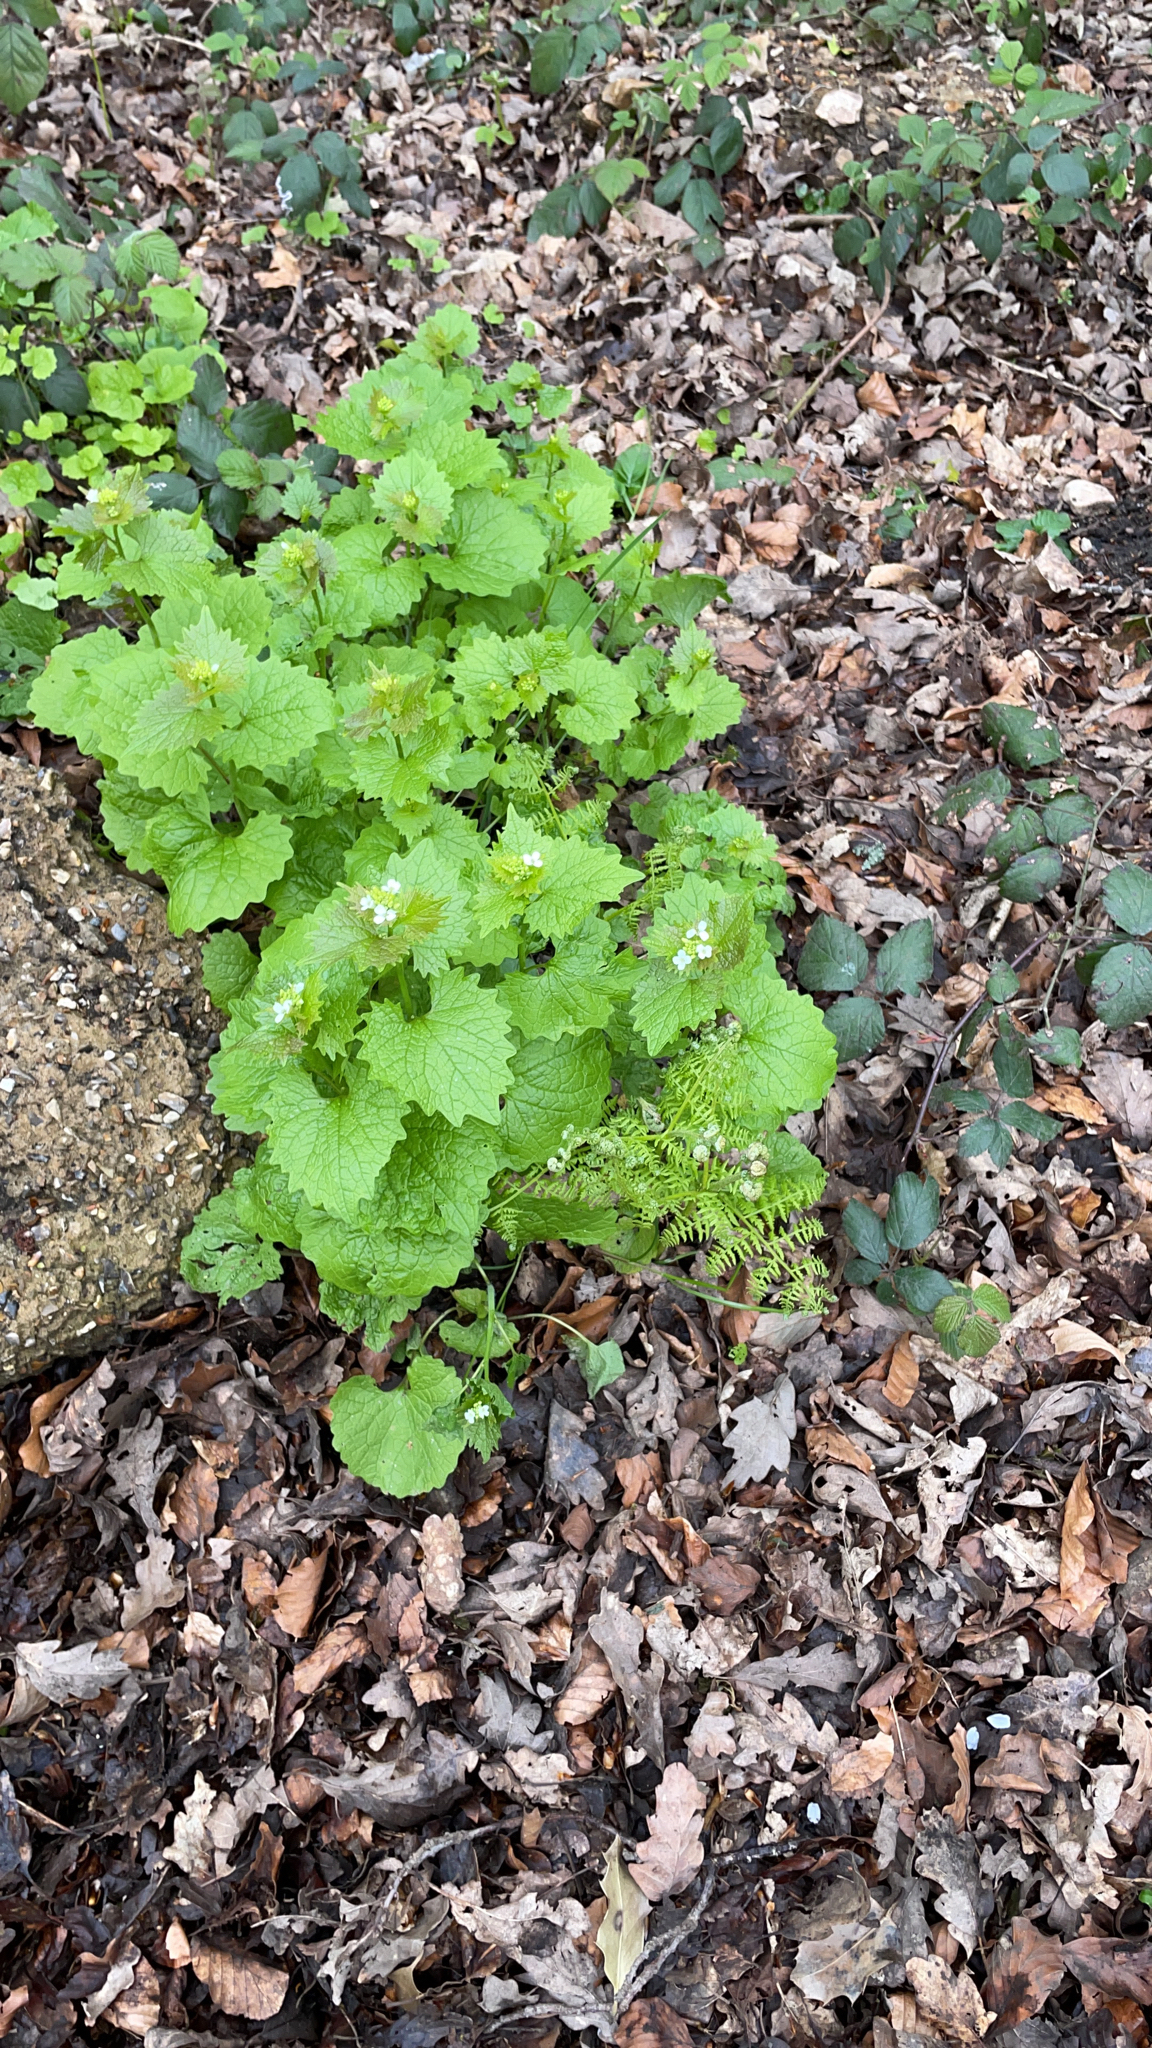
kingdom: Plantae
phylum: Tracheophyta
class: Magnoliopsida
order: Brassicales
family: Brassicaceae
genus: Alliaria
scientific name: Alliaria petiolata
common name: Garlic mustard
